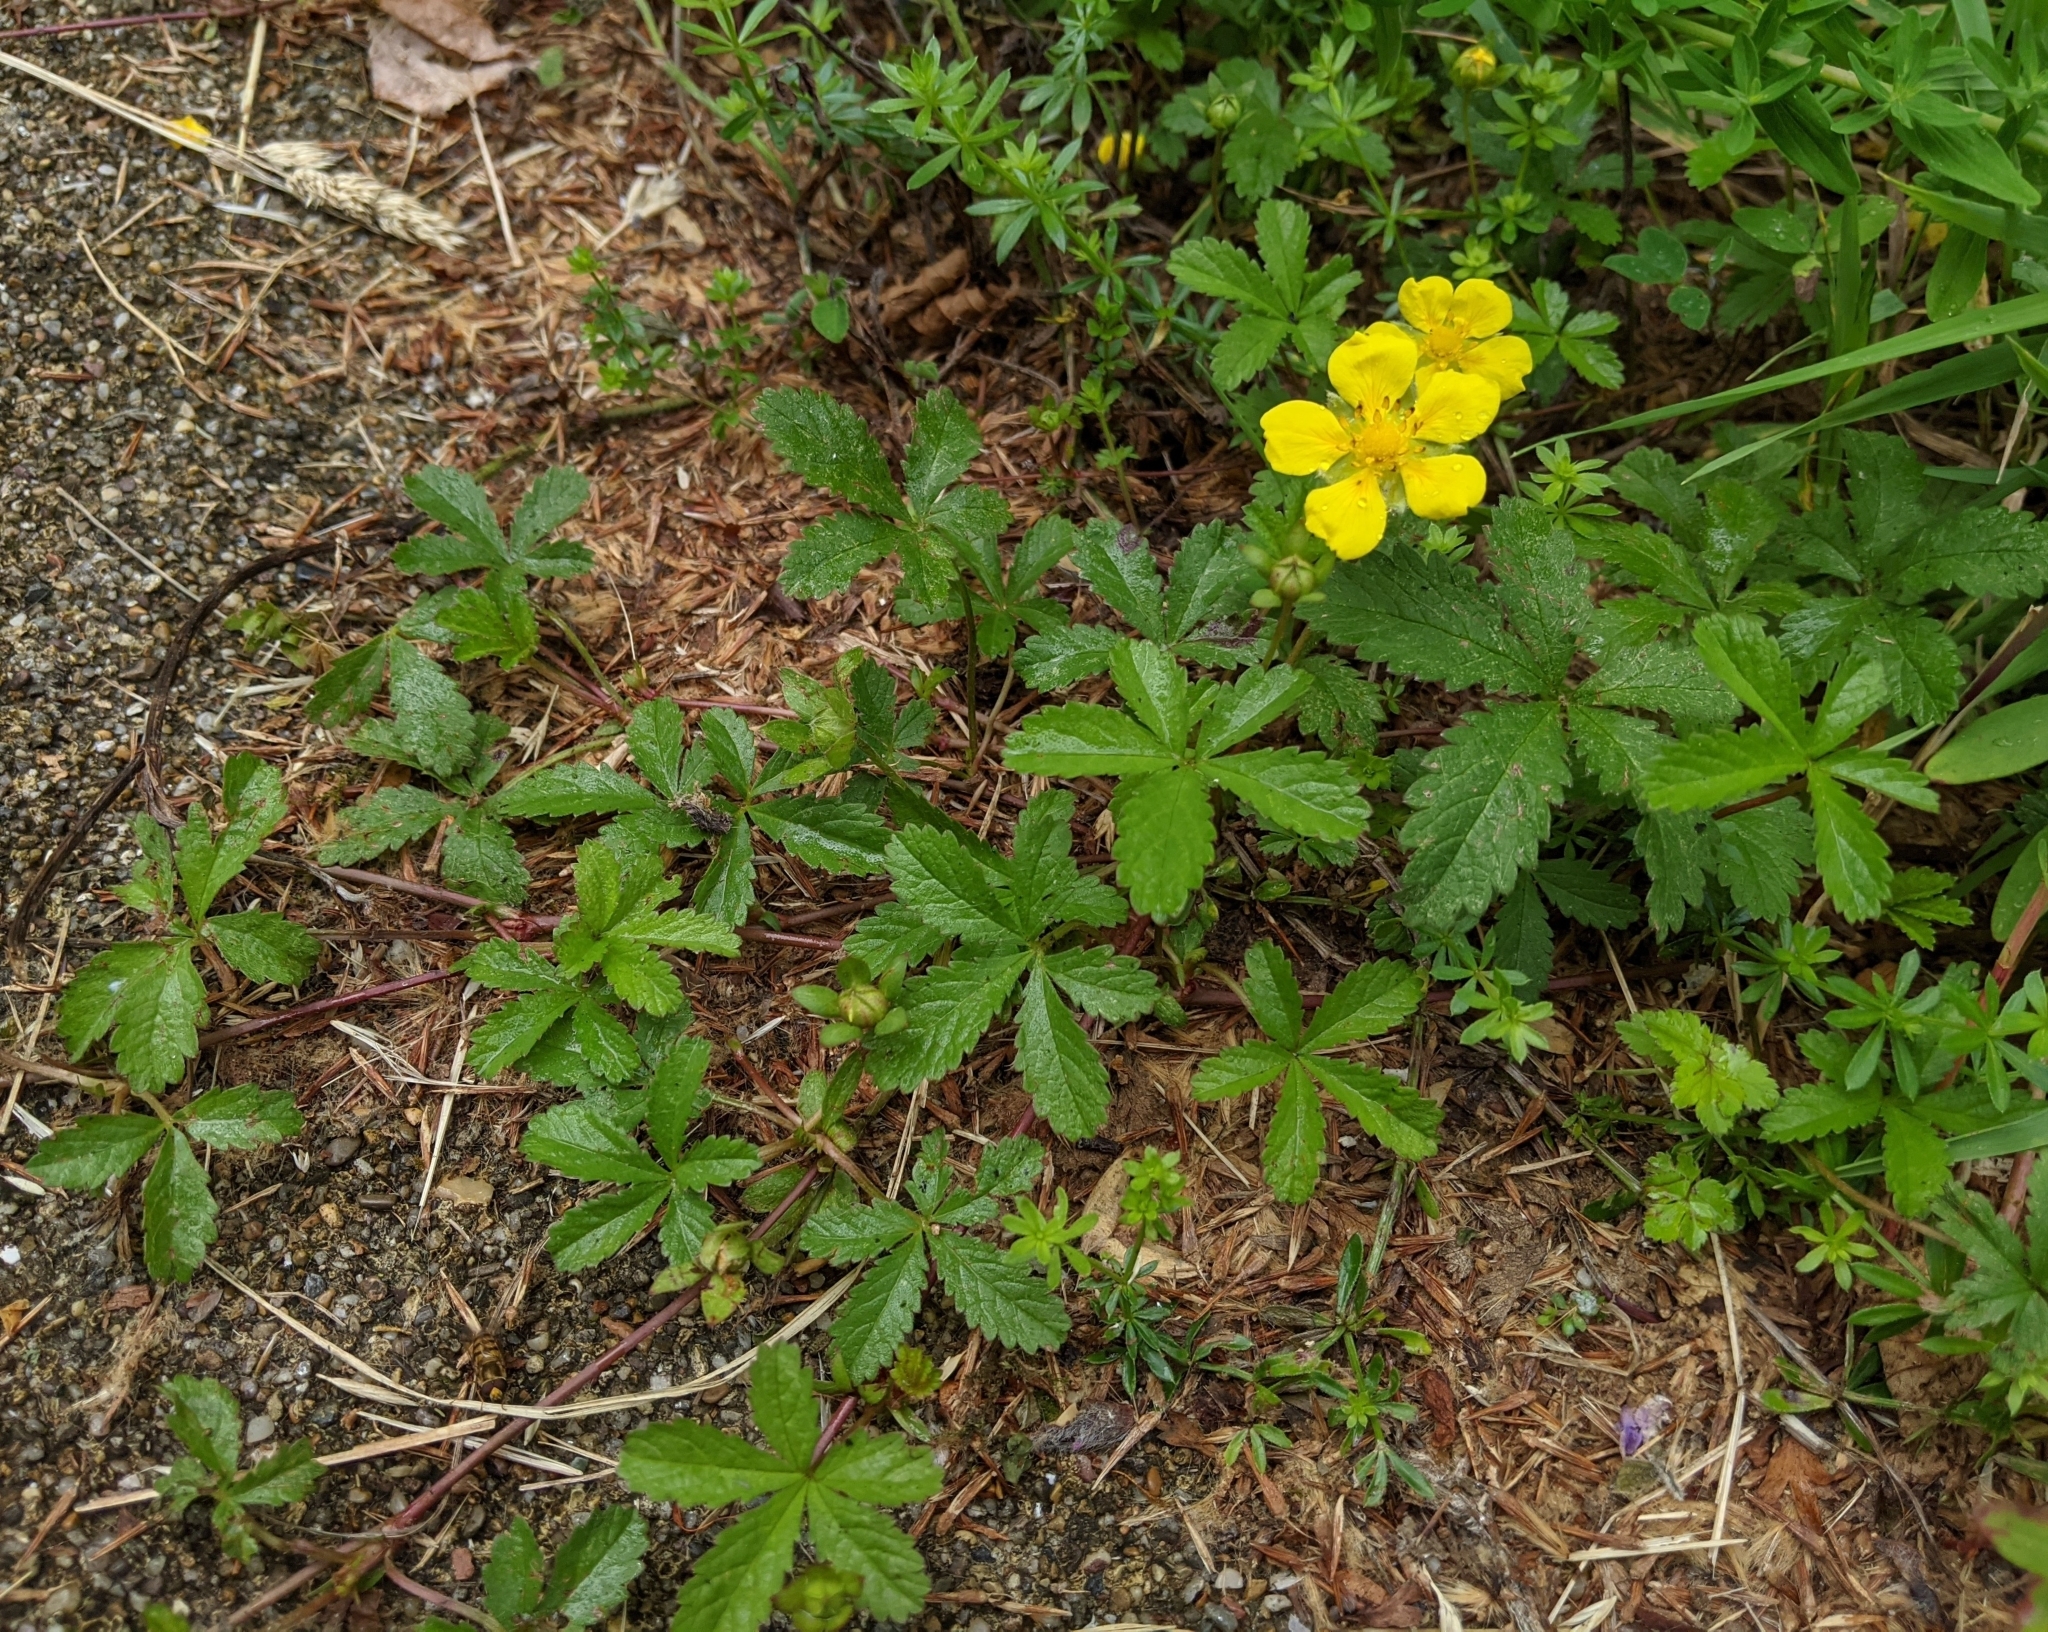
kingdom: Plantae
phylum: Tracheophyta
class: Magnoliopsida
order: Rosales
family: Rosaceae
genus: Potentilla
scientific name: Potentilla reptans
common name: Creeping cinquefoil
